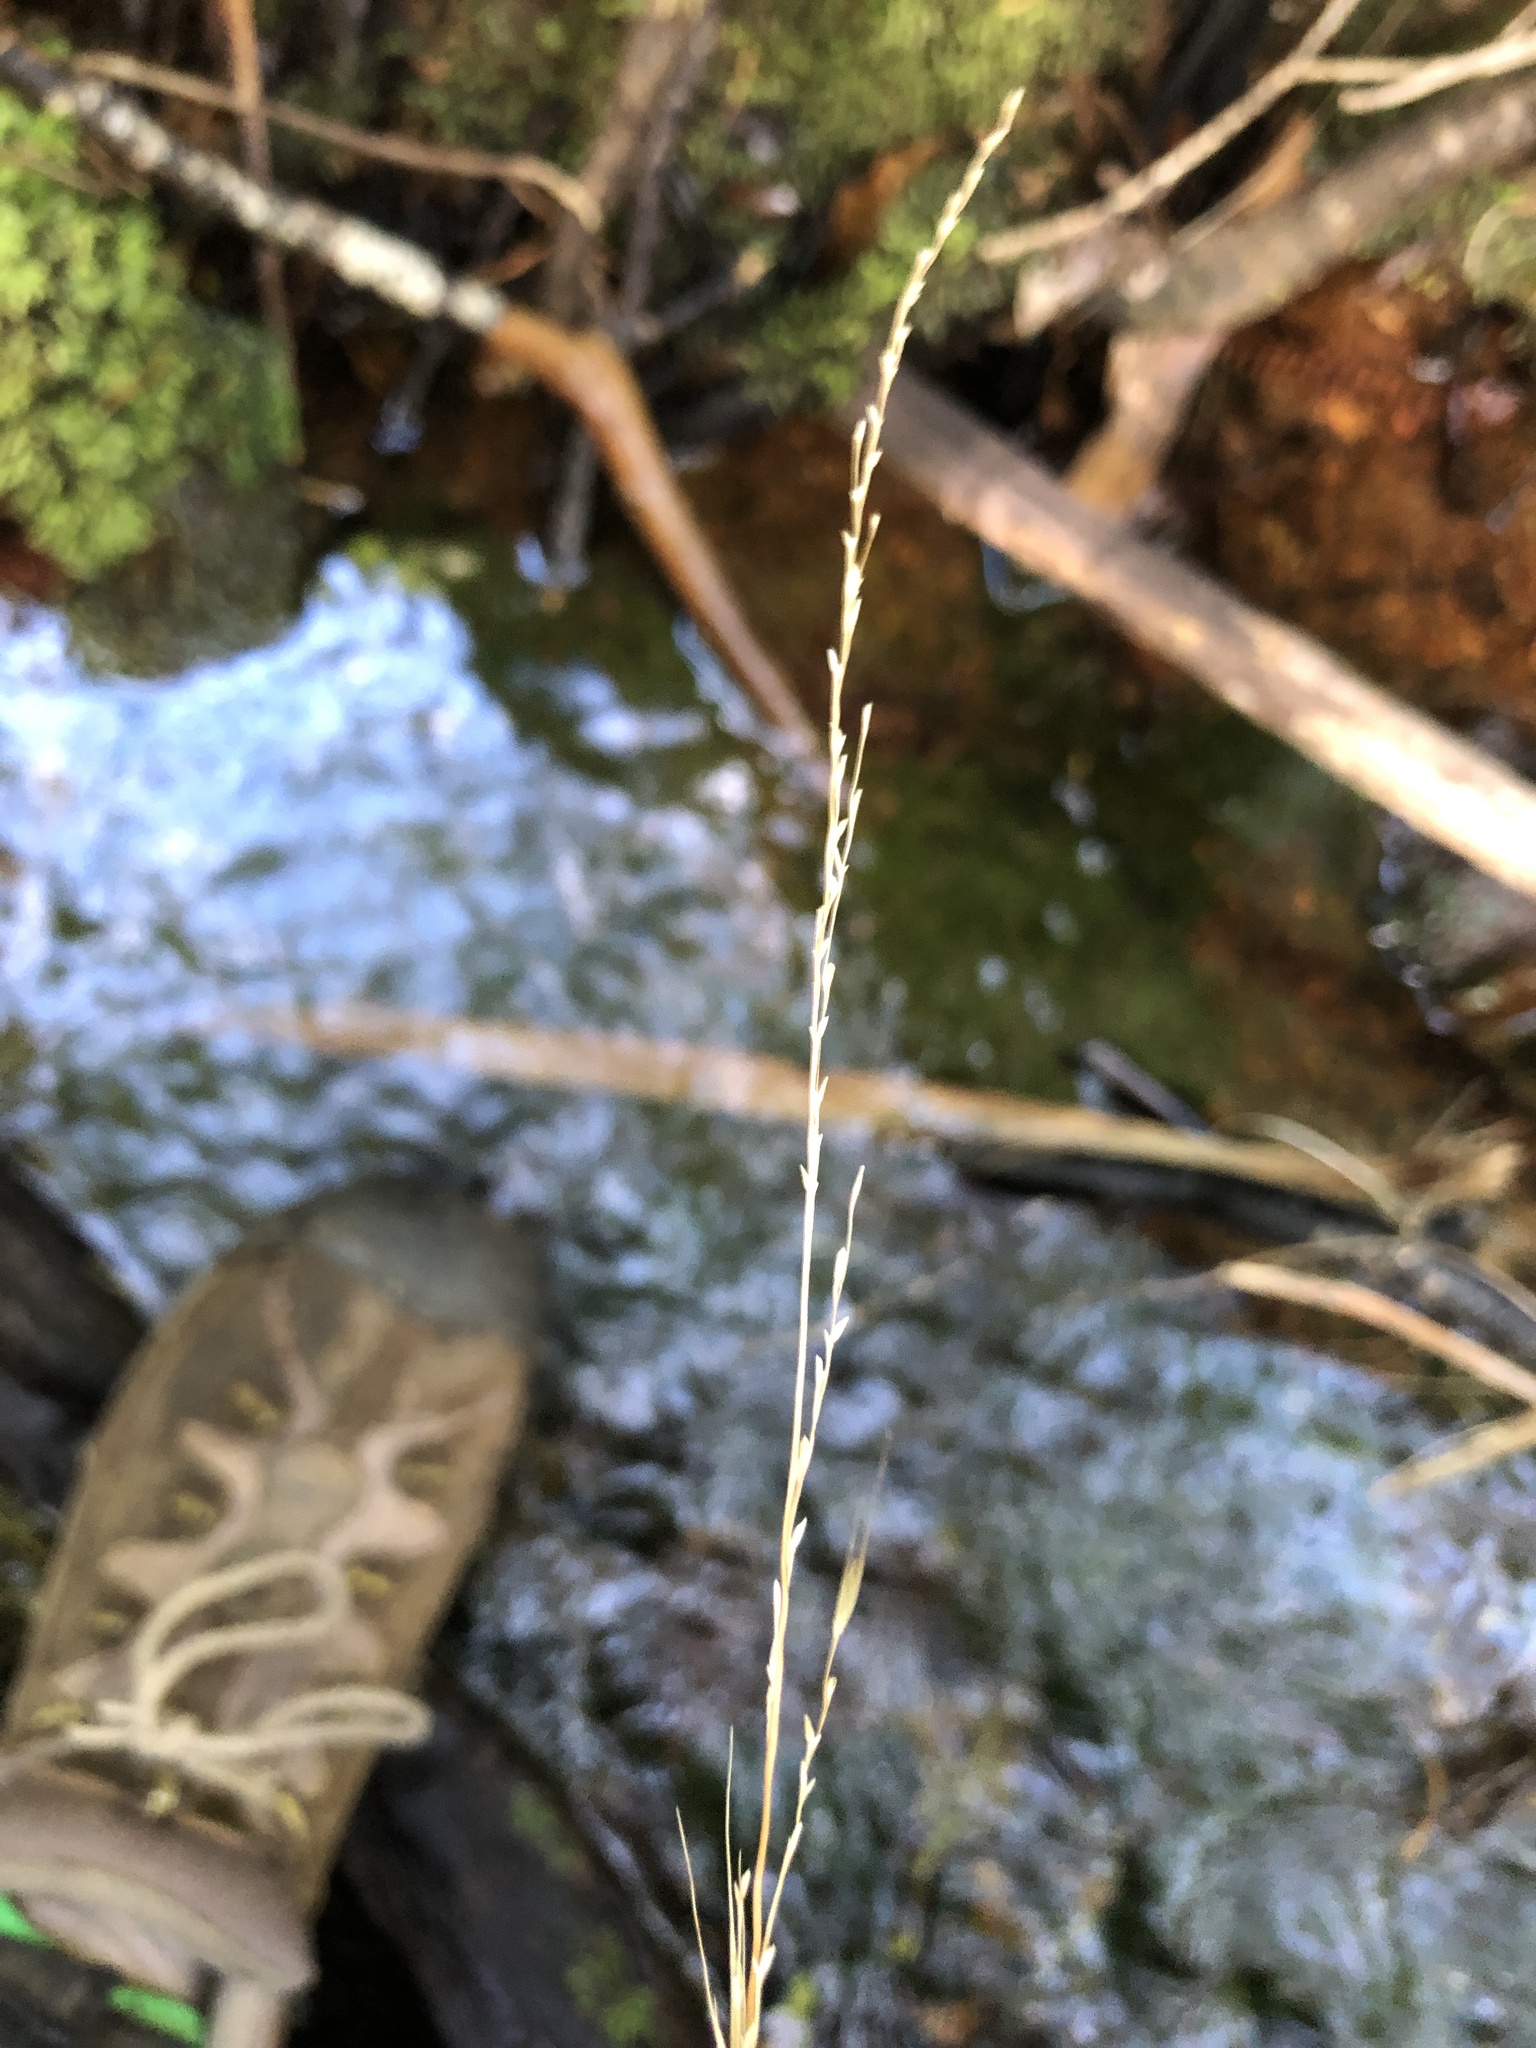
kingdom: Plantae
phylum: Tracheophyta
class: Liliopsida
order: Poales
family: Poaceae
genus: Ehrharta
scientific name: Ehrharta diplax
